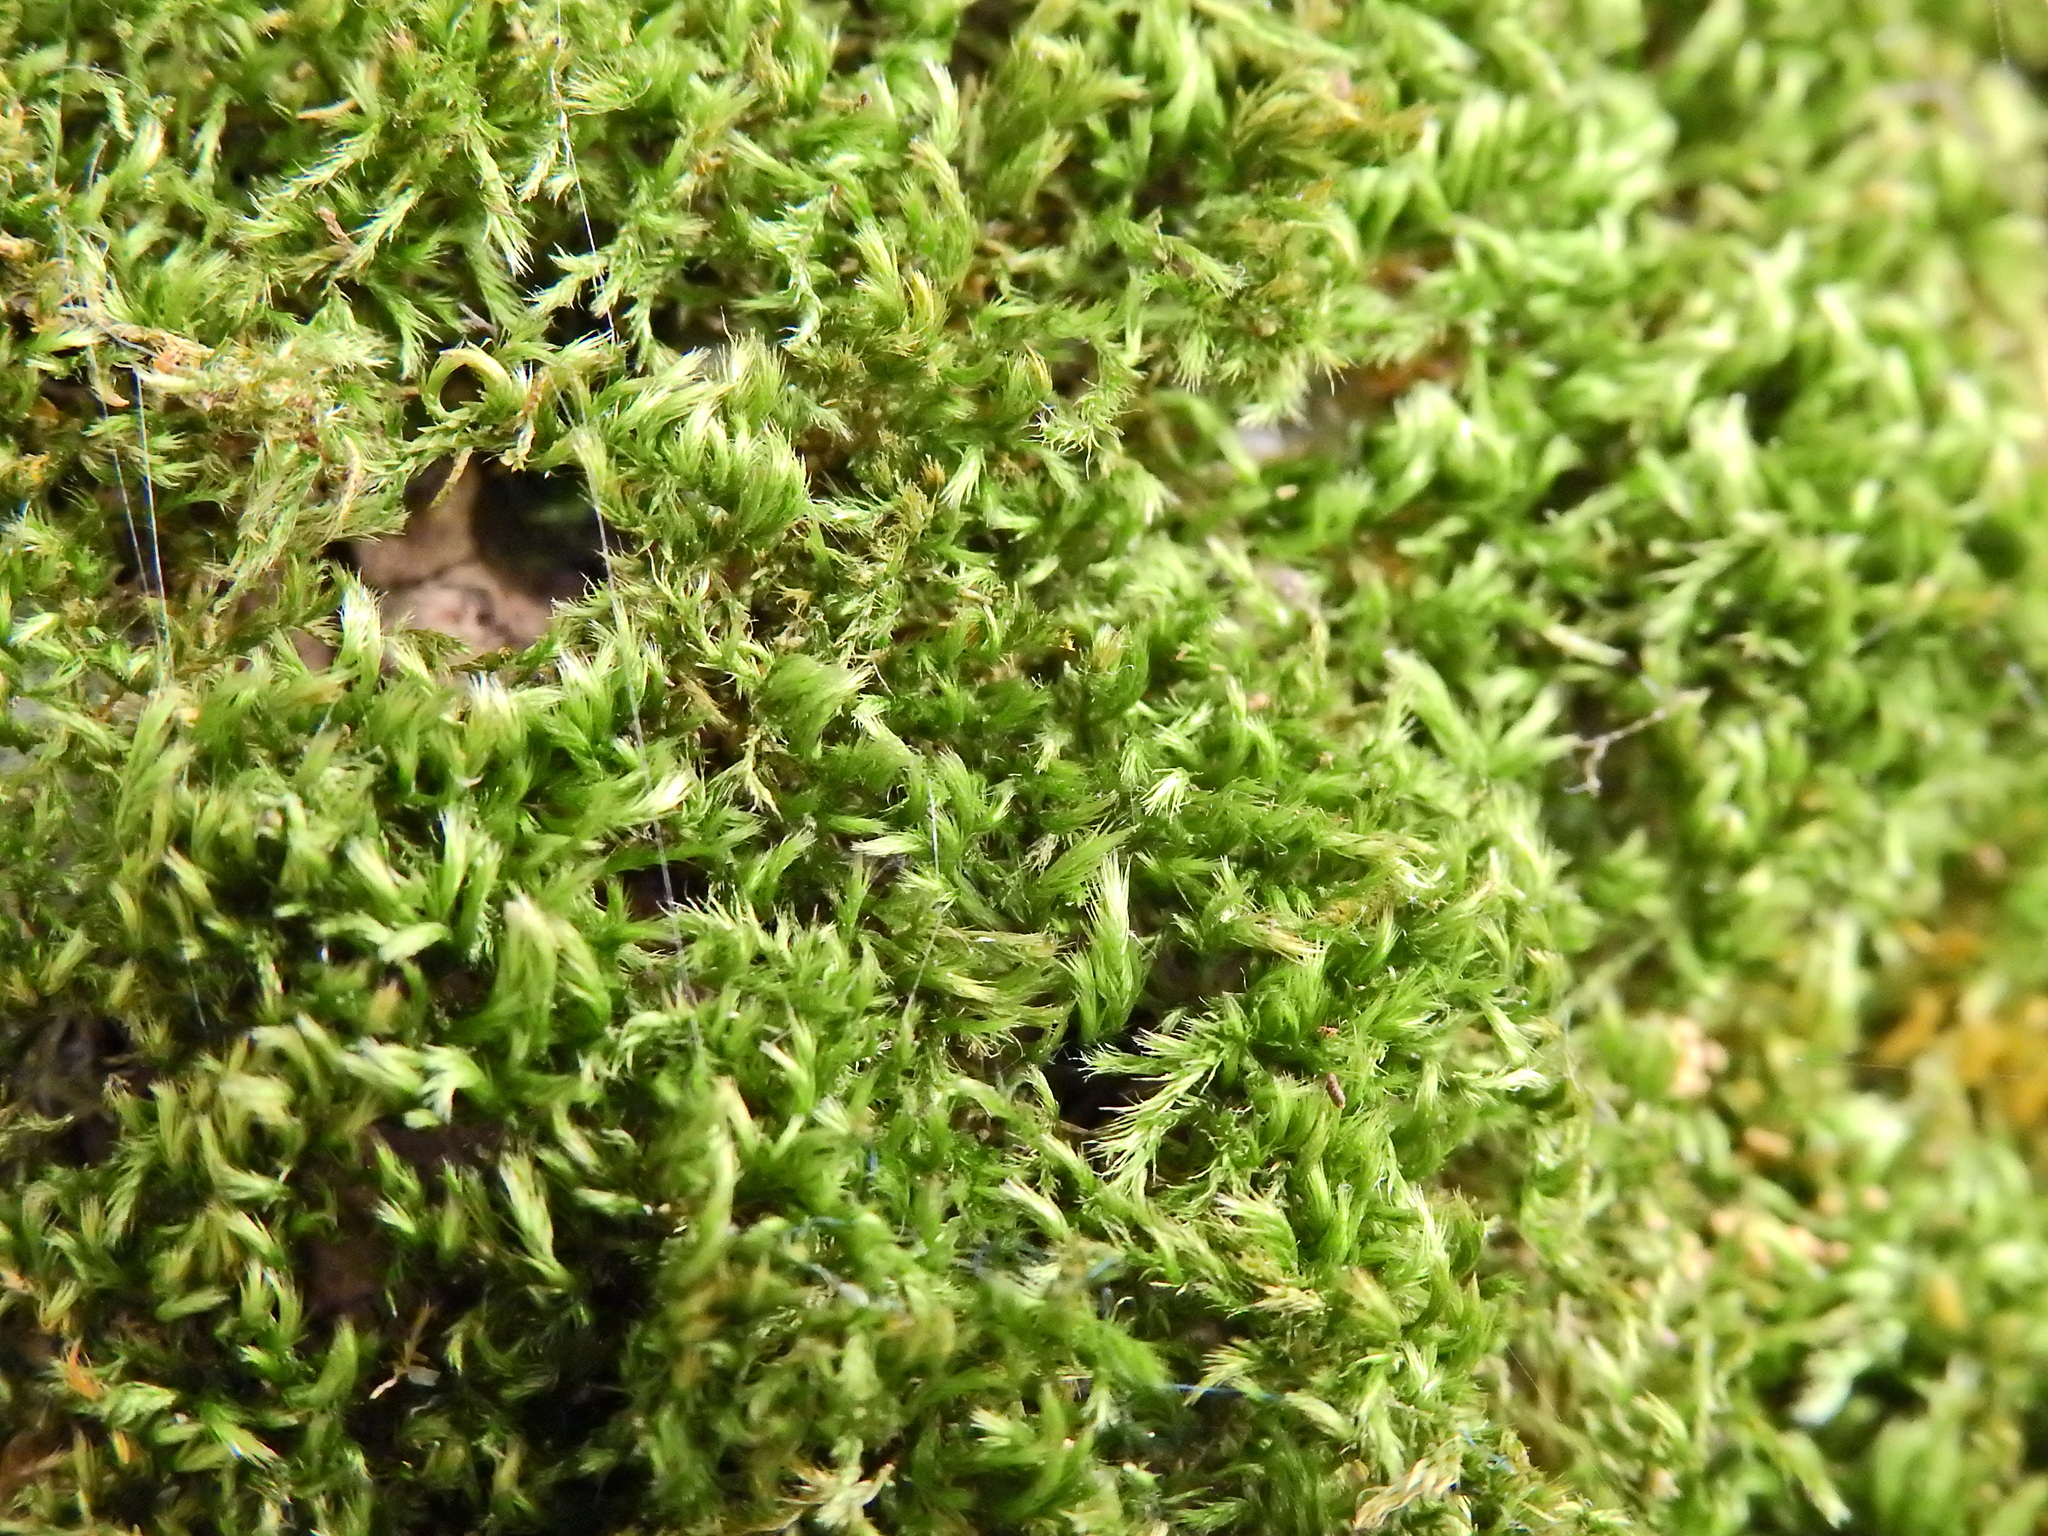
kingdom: Plantae
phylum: Bryophyta
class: Bryopsida
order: Hypnales
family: Brachytheciaceae
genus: Homalothecium
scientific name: Homalothecium sericeum
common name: Silky wall feather-moss
